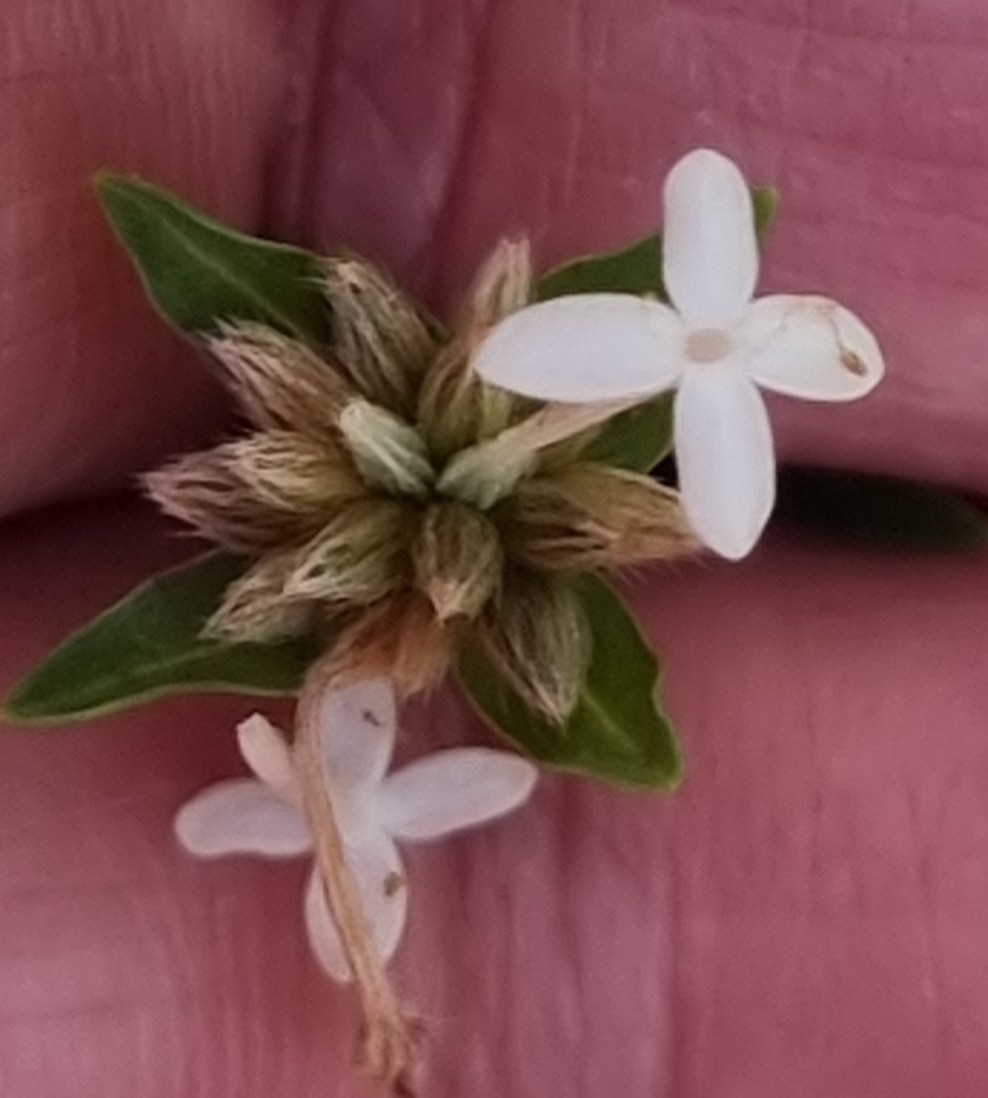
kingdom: Plantae
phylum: Tracheophyta
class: Magnoliopsida
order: Malvales
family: Thymelaeaceae
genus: Pimelea
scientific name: Pimelea linifolia
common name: Queen-of-the-bush
